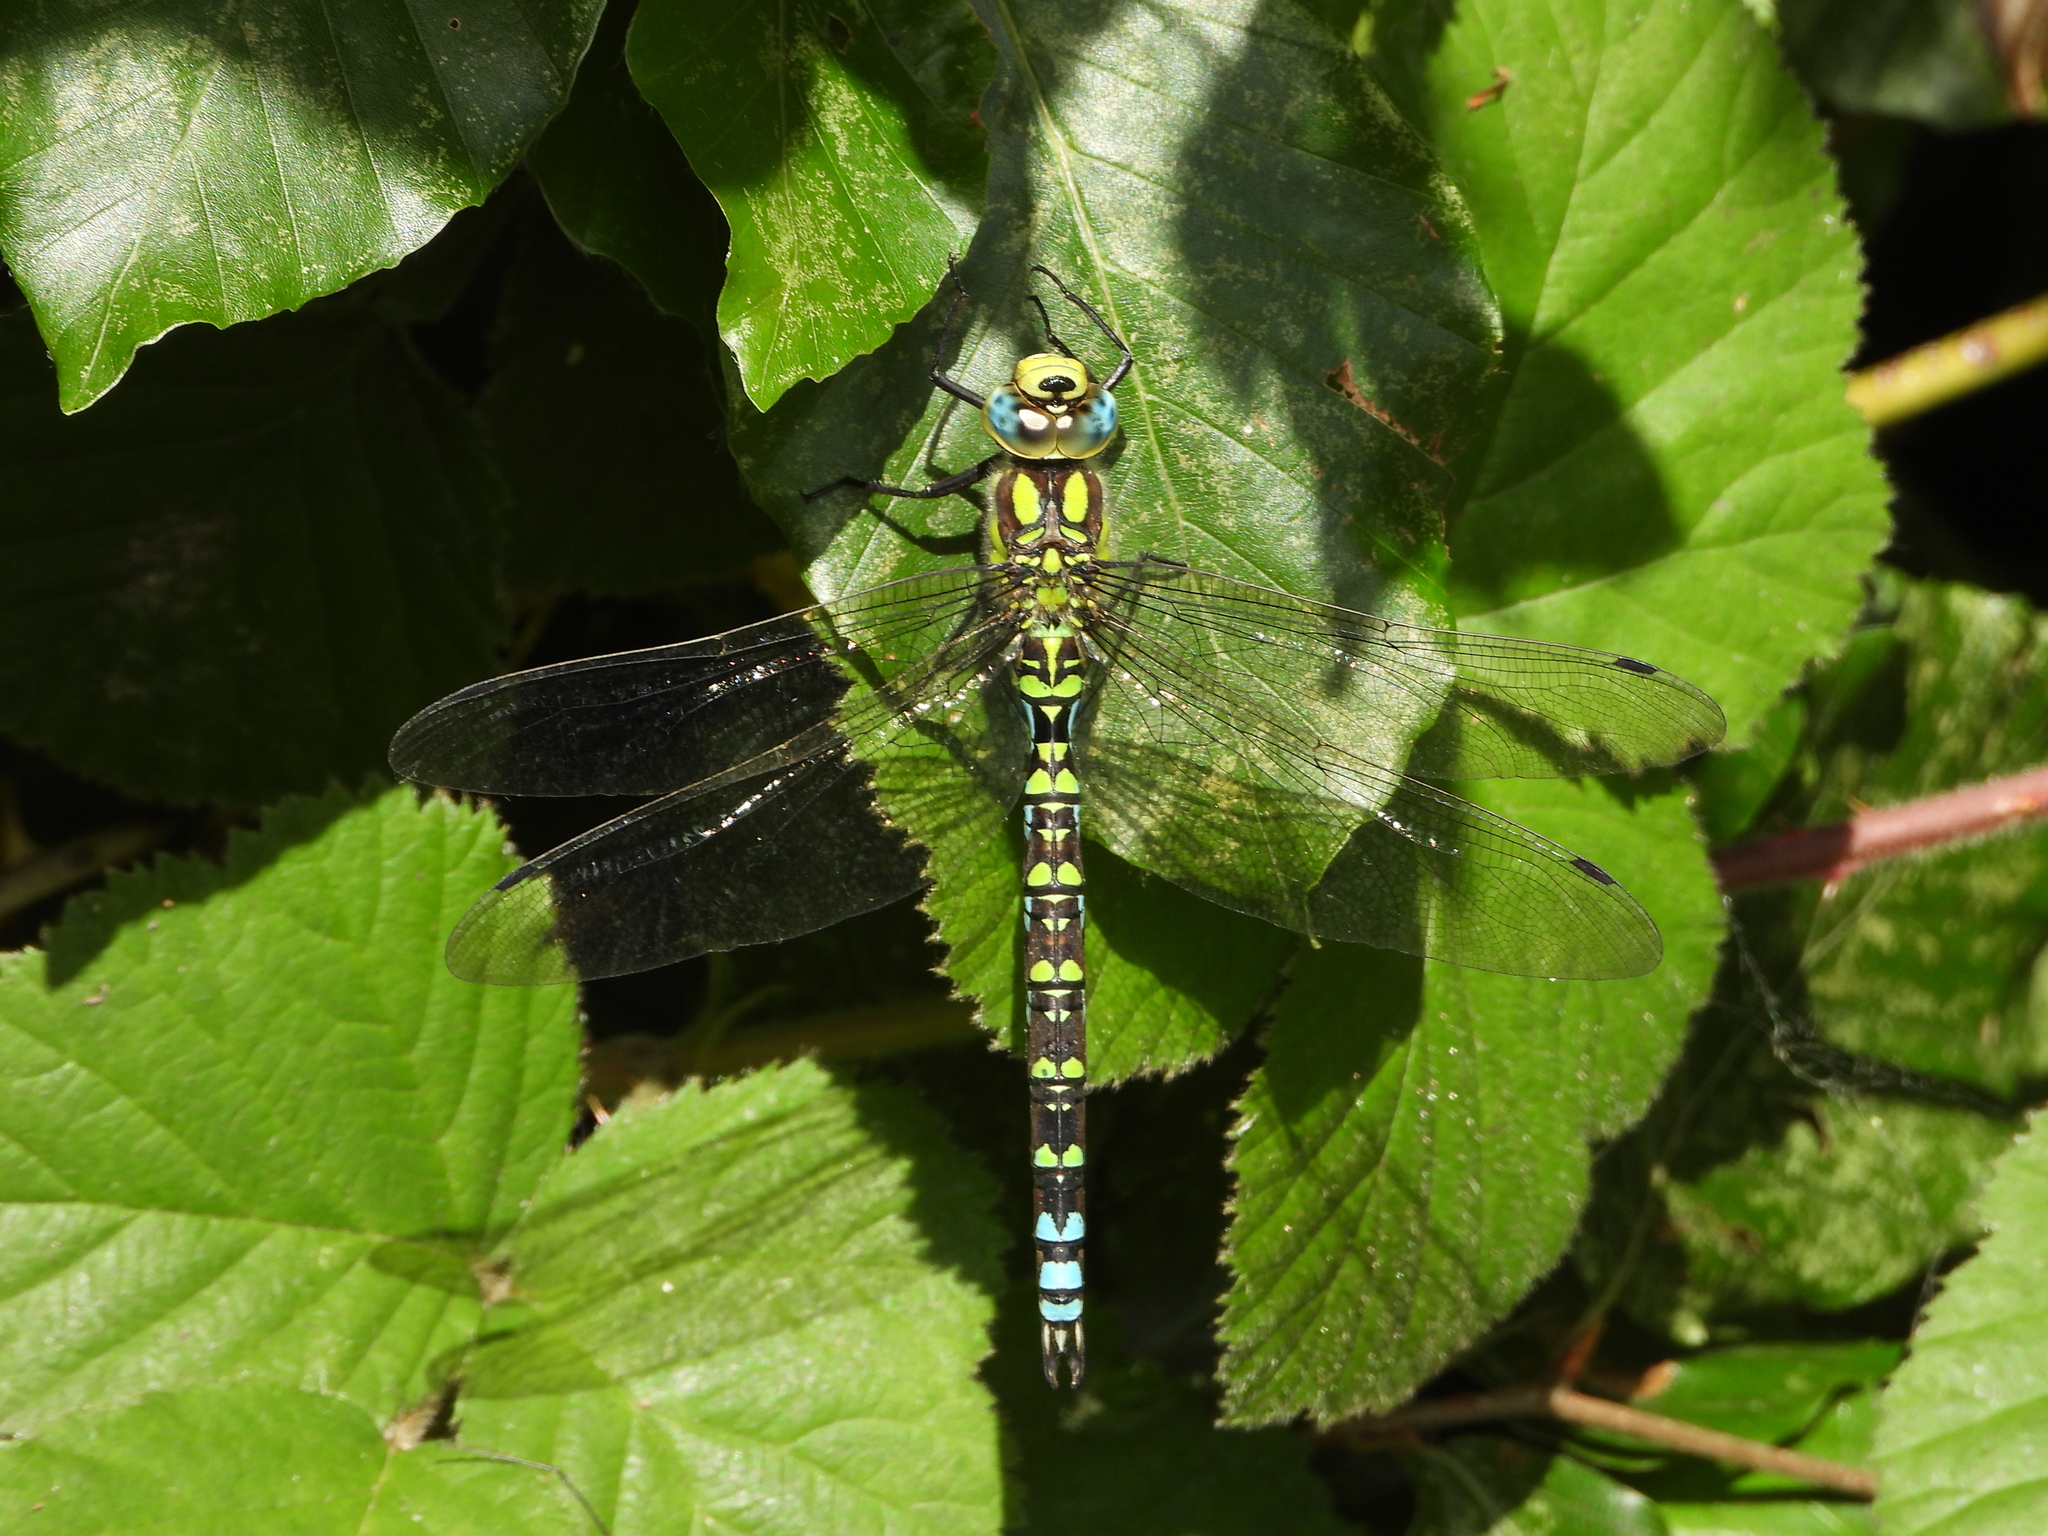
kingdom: Animalia
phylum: Arthropoda
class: Insecta
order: Odonata
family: Aeshnidae
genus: Aeshna
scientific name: Aeshna cyanea
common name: Southern hawker
